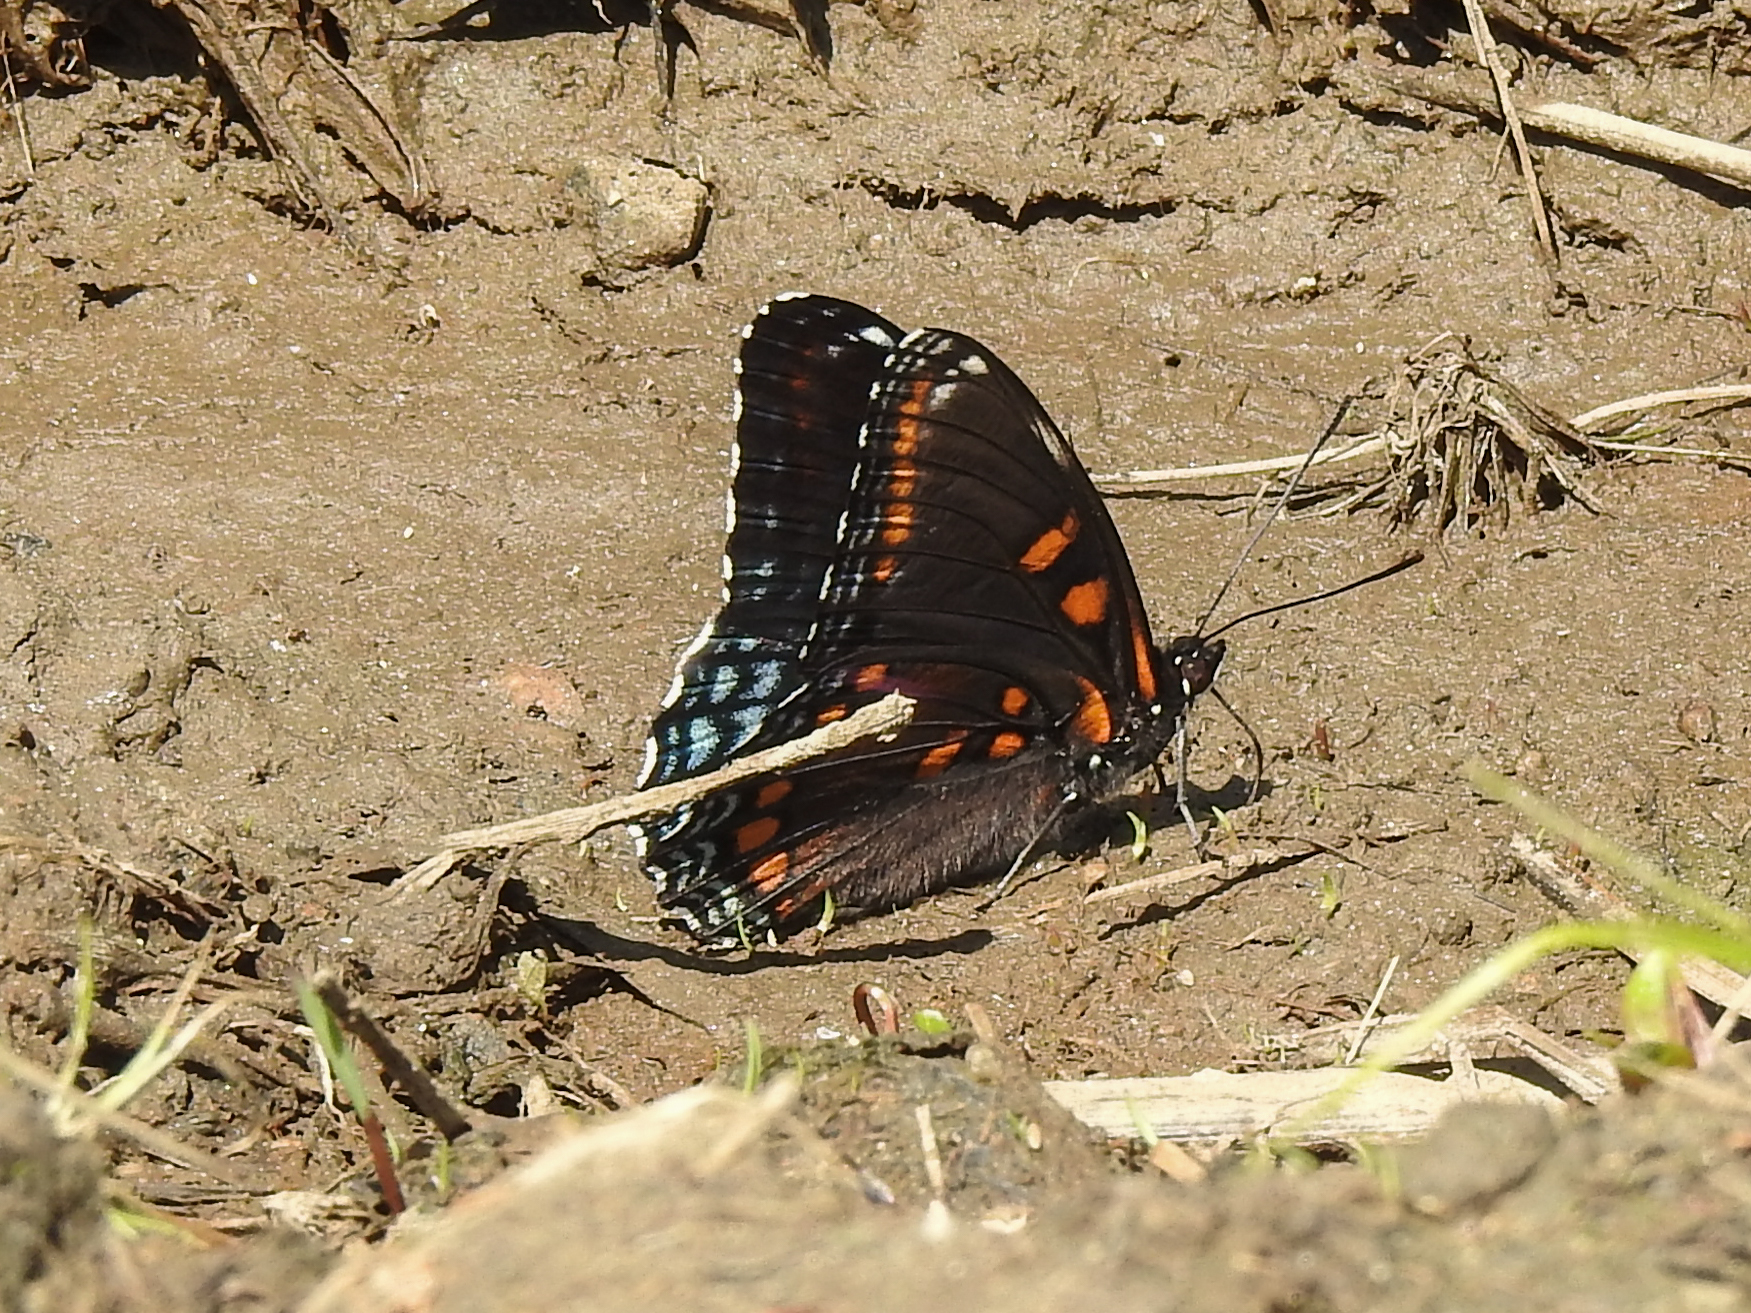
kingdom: Animalia
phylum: Arthropoda
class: Insecta
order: Lepidoptera
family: Nymphalidae
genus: Limenitis
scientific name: Limenitis arthemis
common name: Red-spotted admiral
